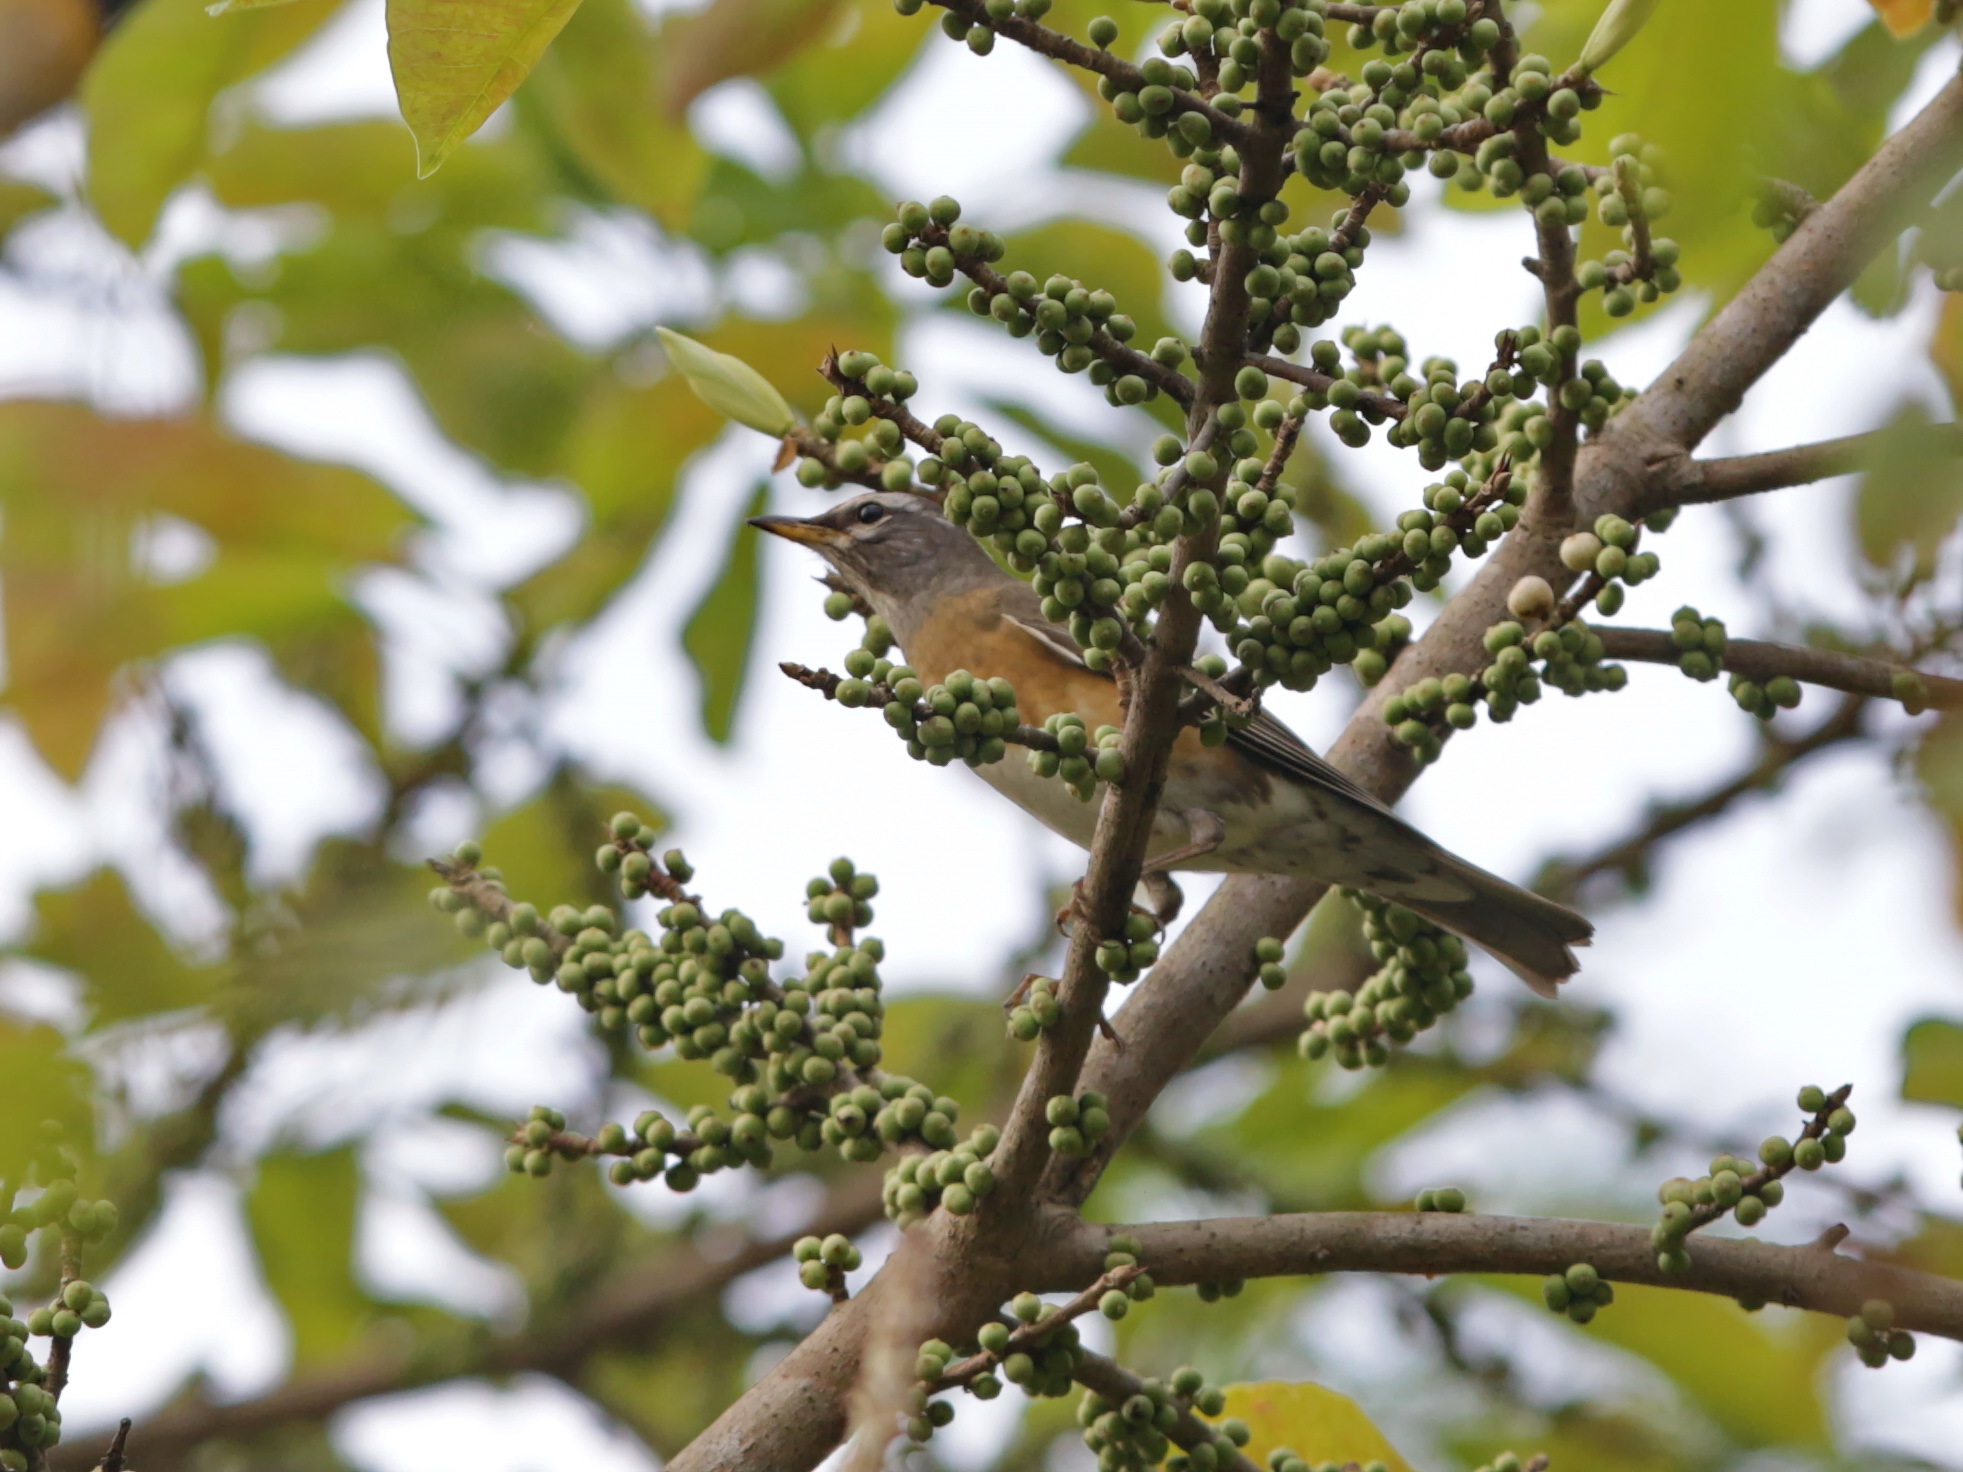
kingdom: Animalia
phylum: Chordata
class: Aves
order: Passeriformes
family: Turdidae
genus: Turdus
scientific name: Turdus obscurus
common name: Eyebrowed thrush
